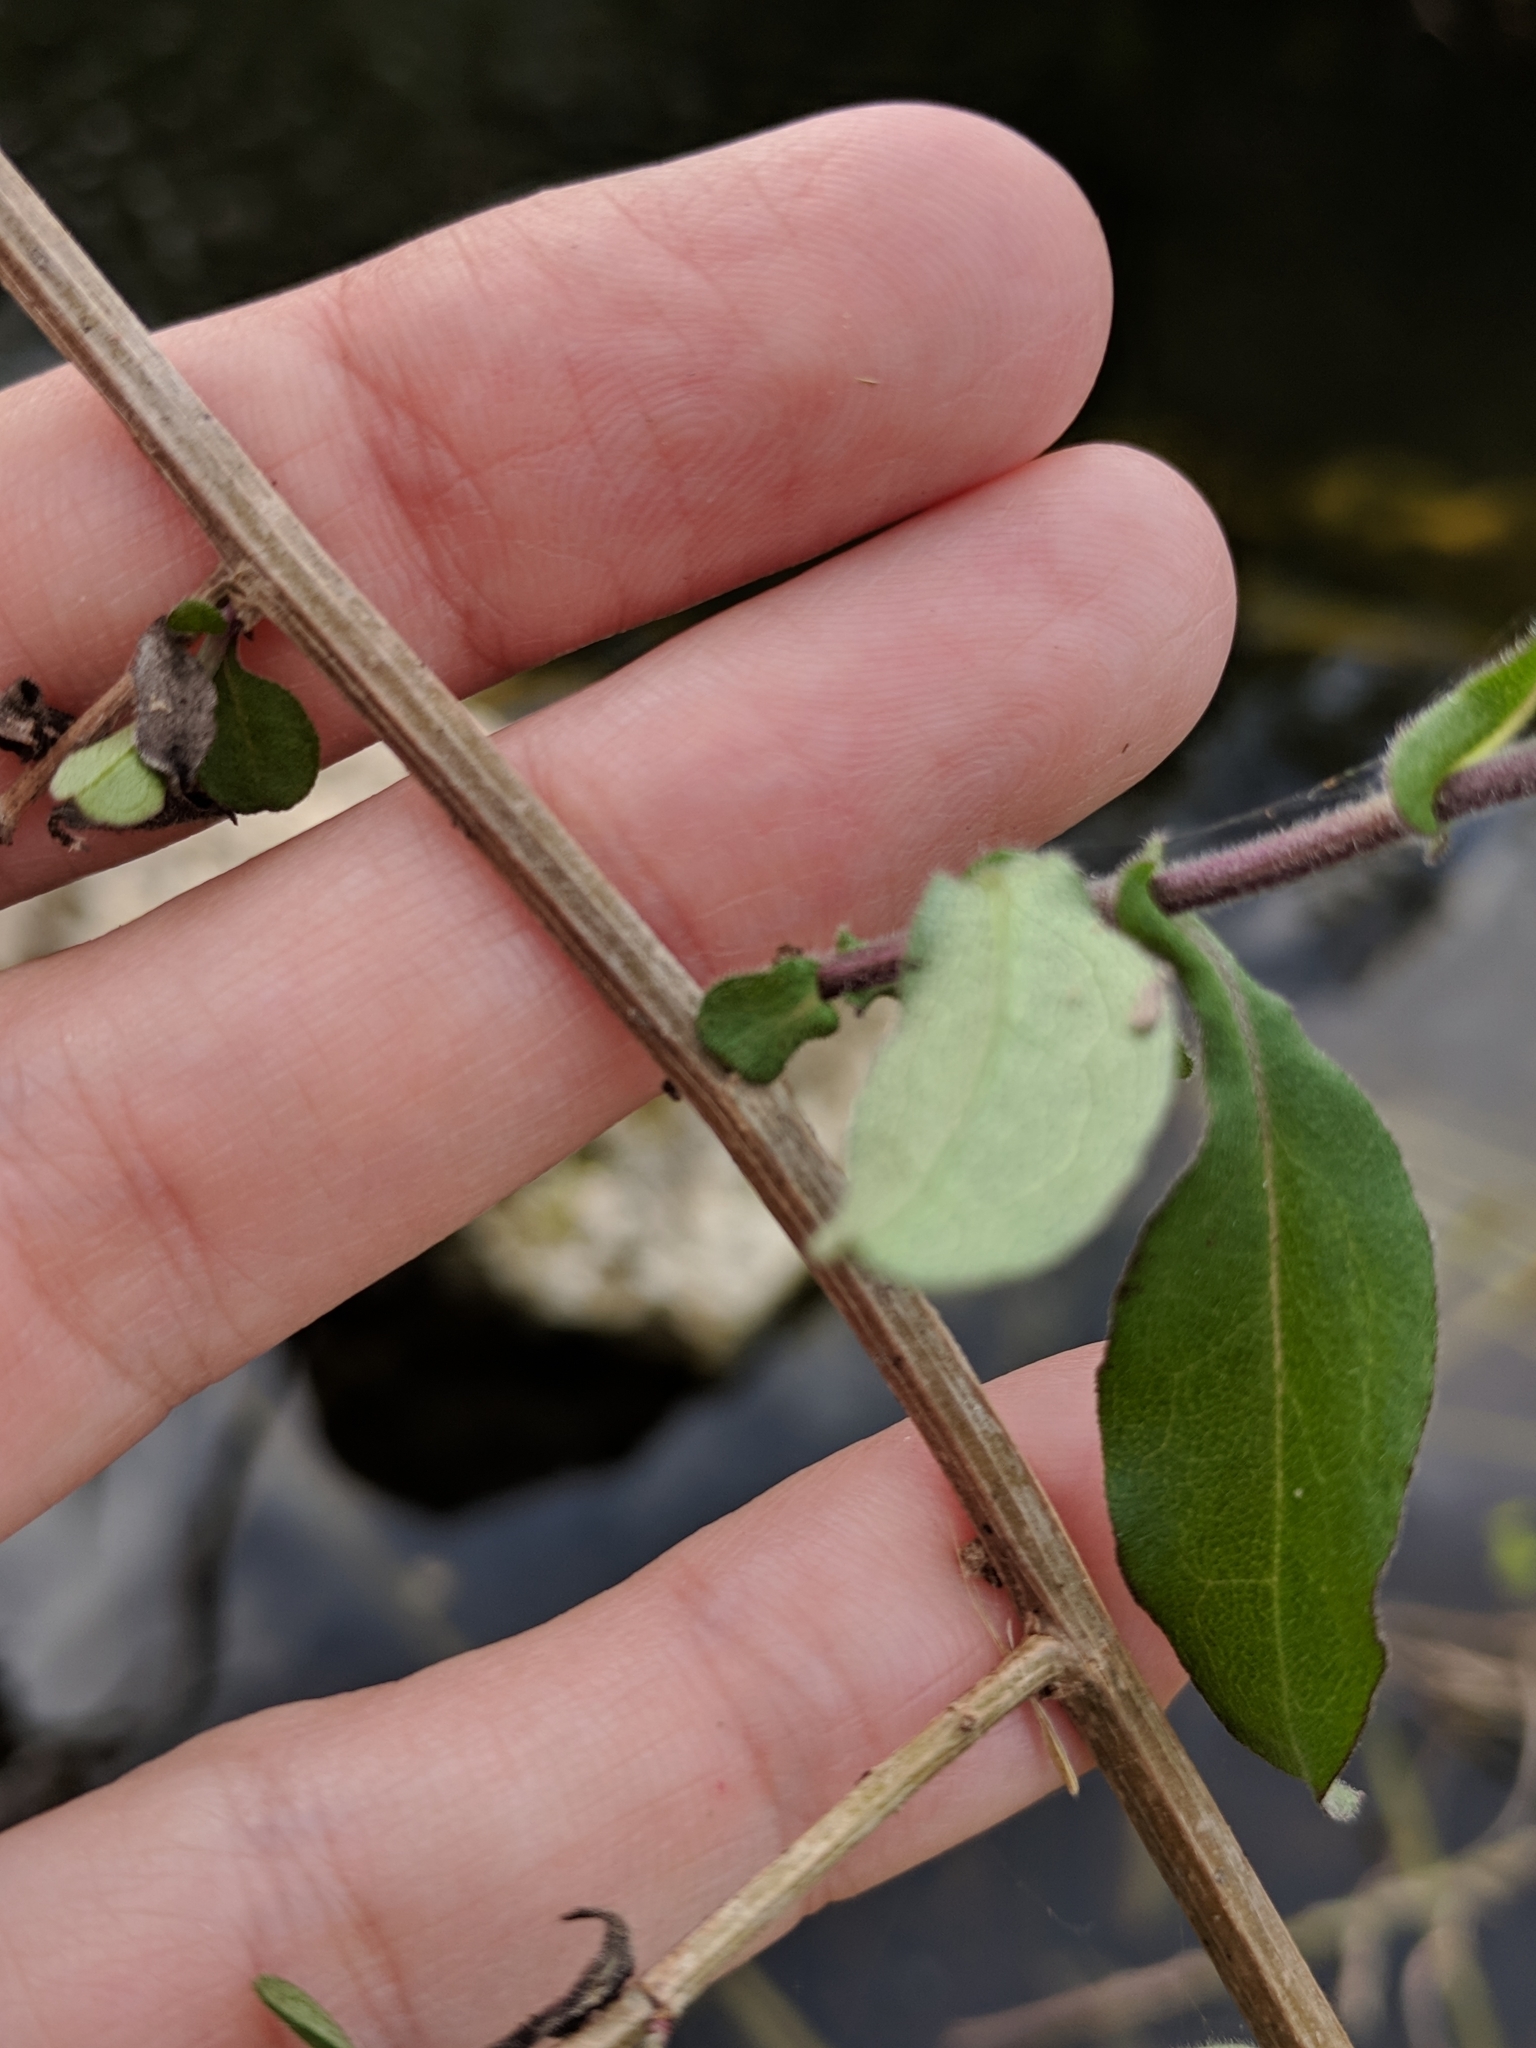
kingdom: Plantae
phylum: Tracheophyta
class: Magnoliopsida
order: Asterales
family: Asteraceae
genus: Ampelaster
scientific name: Ampelaster carolinianus
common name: Climbing aster
